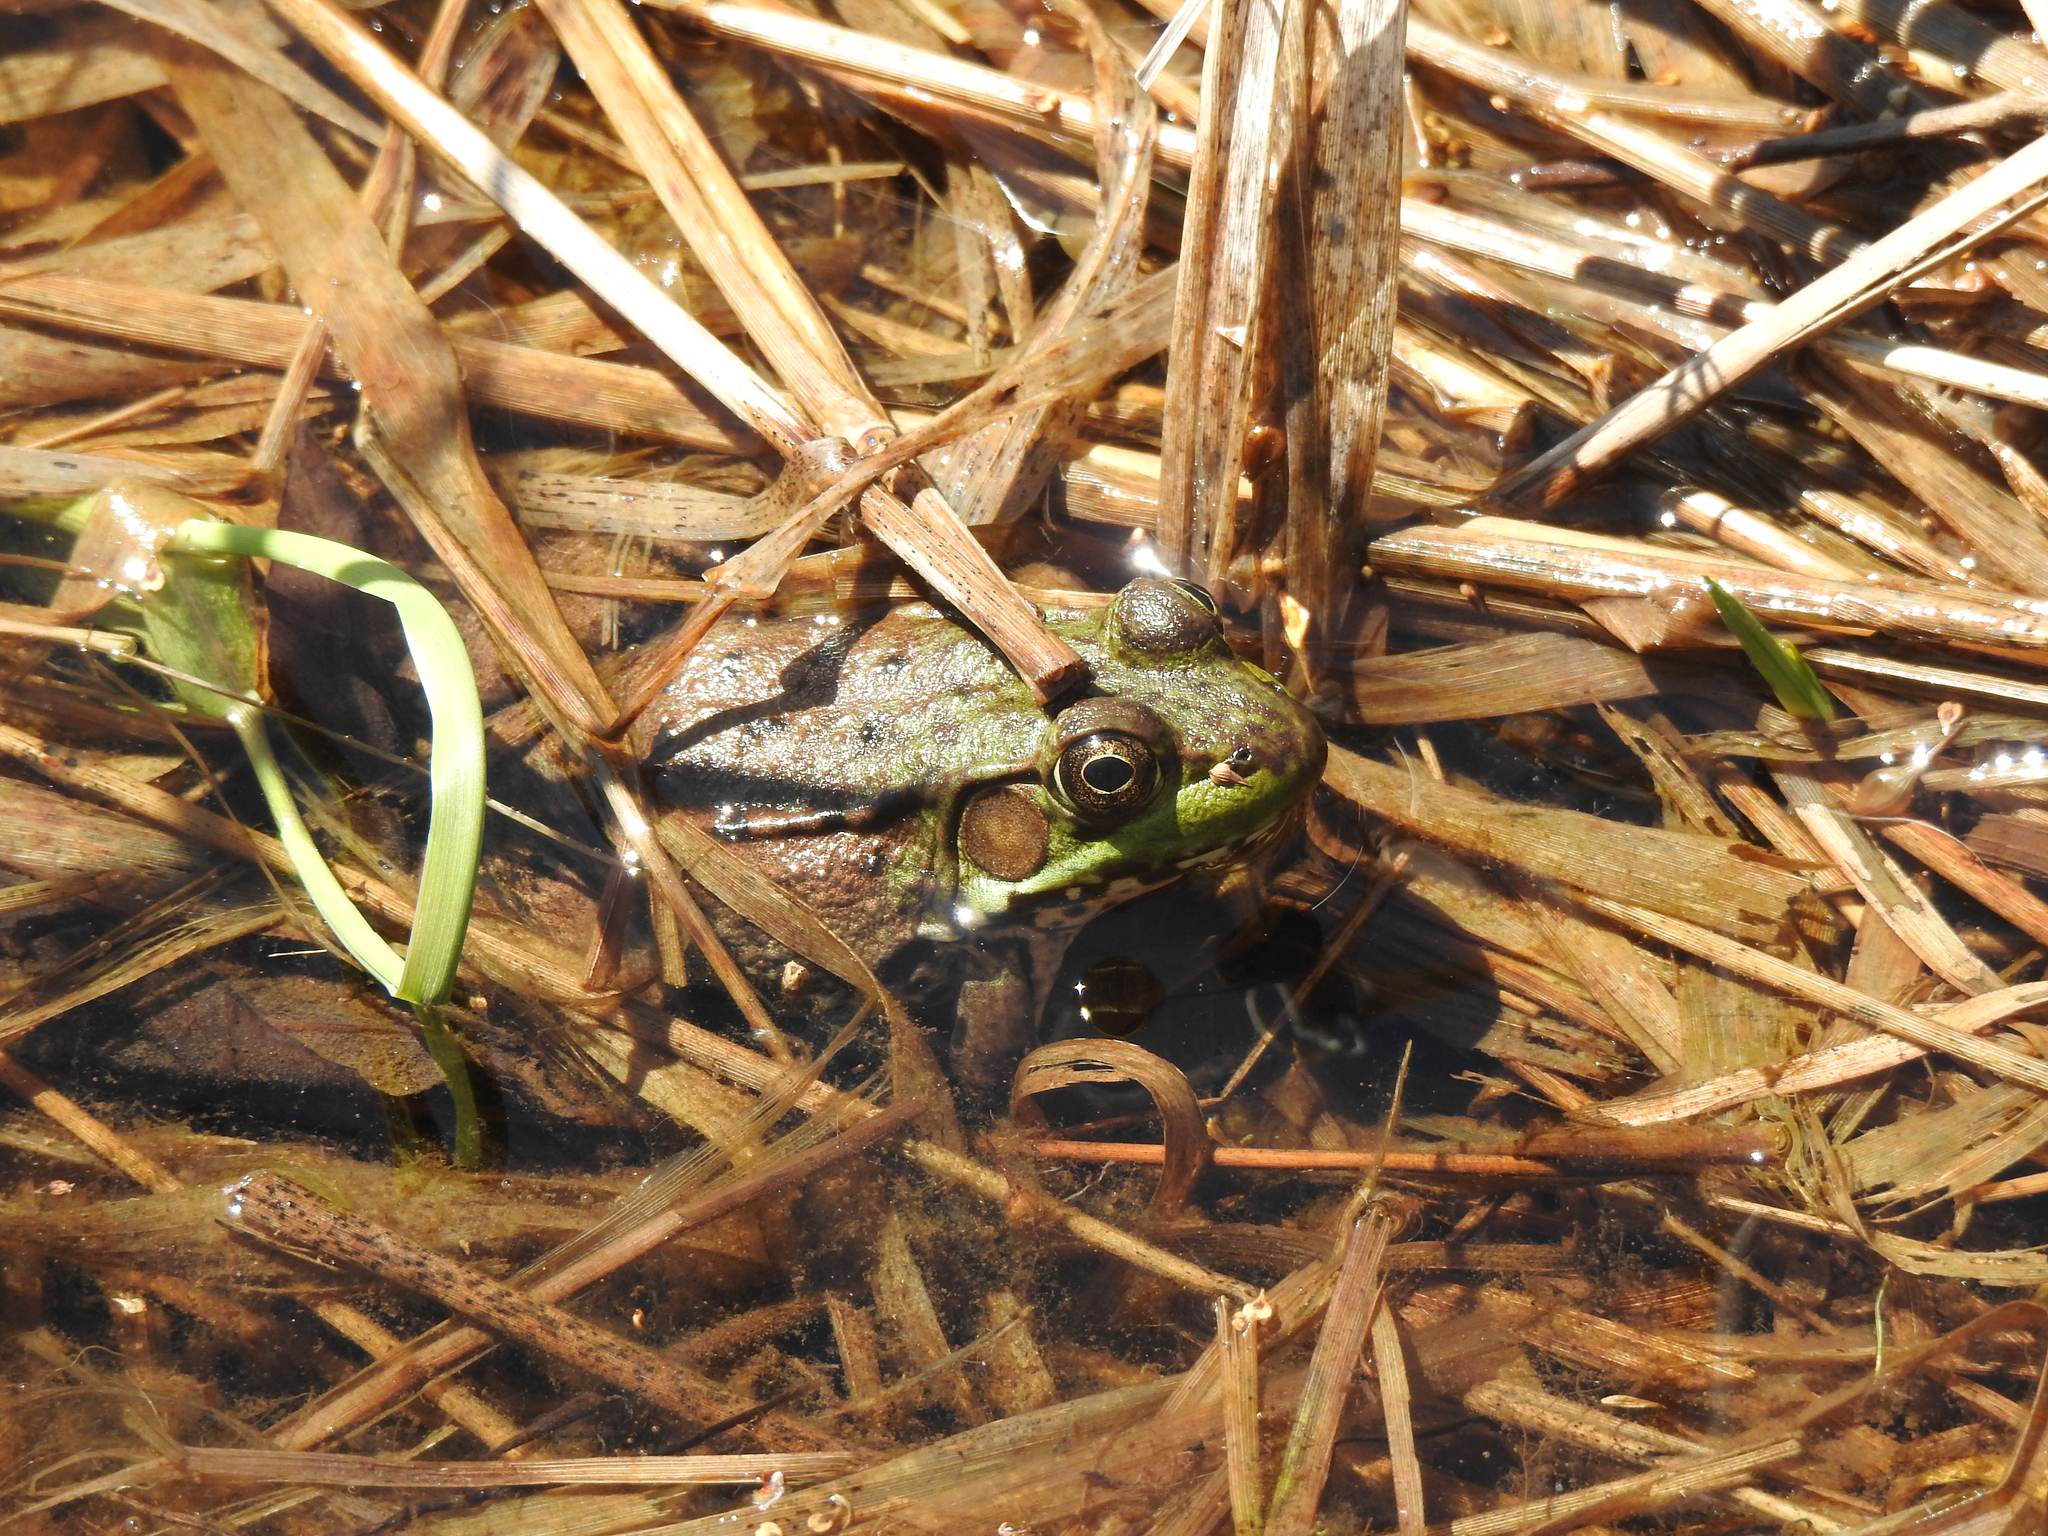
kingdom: Animalia
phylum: Chordata
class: Amphibia
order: Anura
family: Ranidae
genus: Lithobates
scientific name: Lithobates clamitans
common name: Green frog
